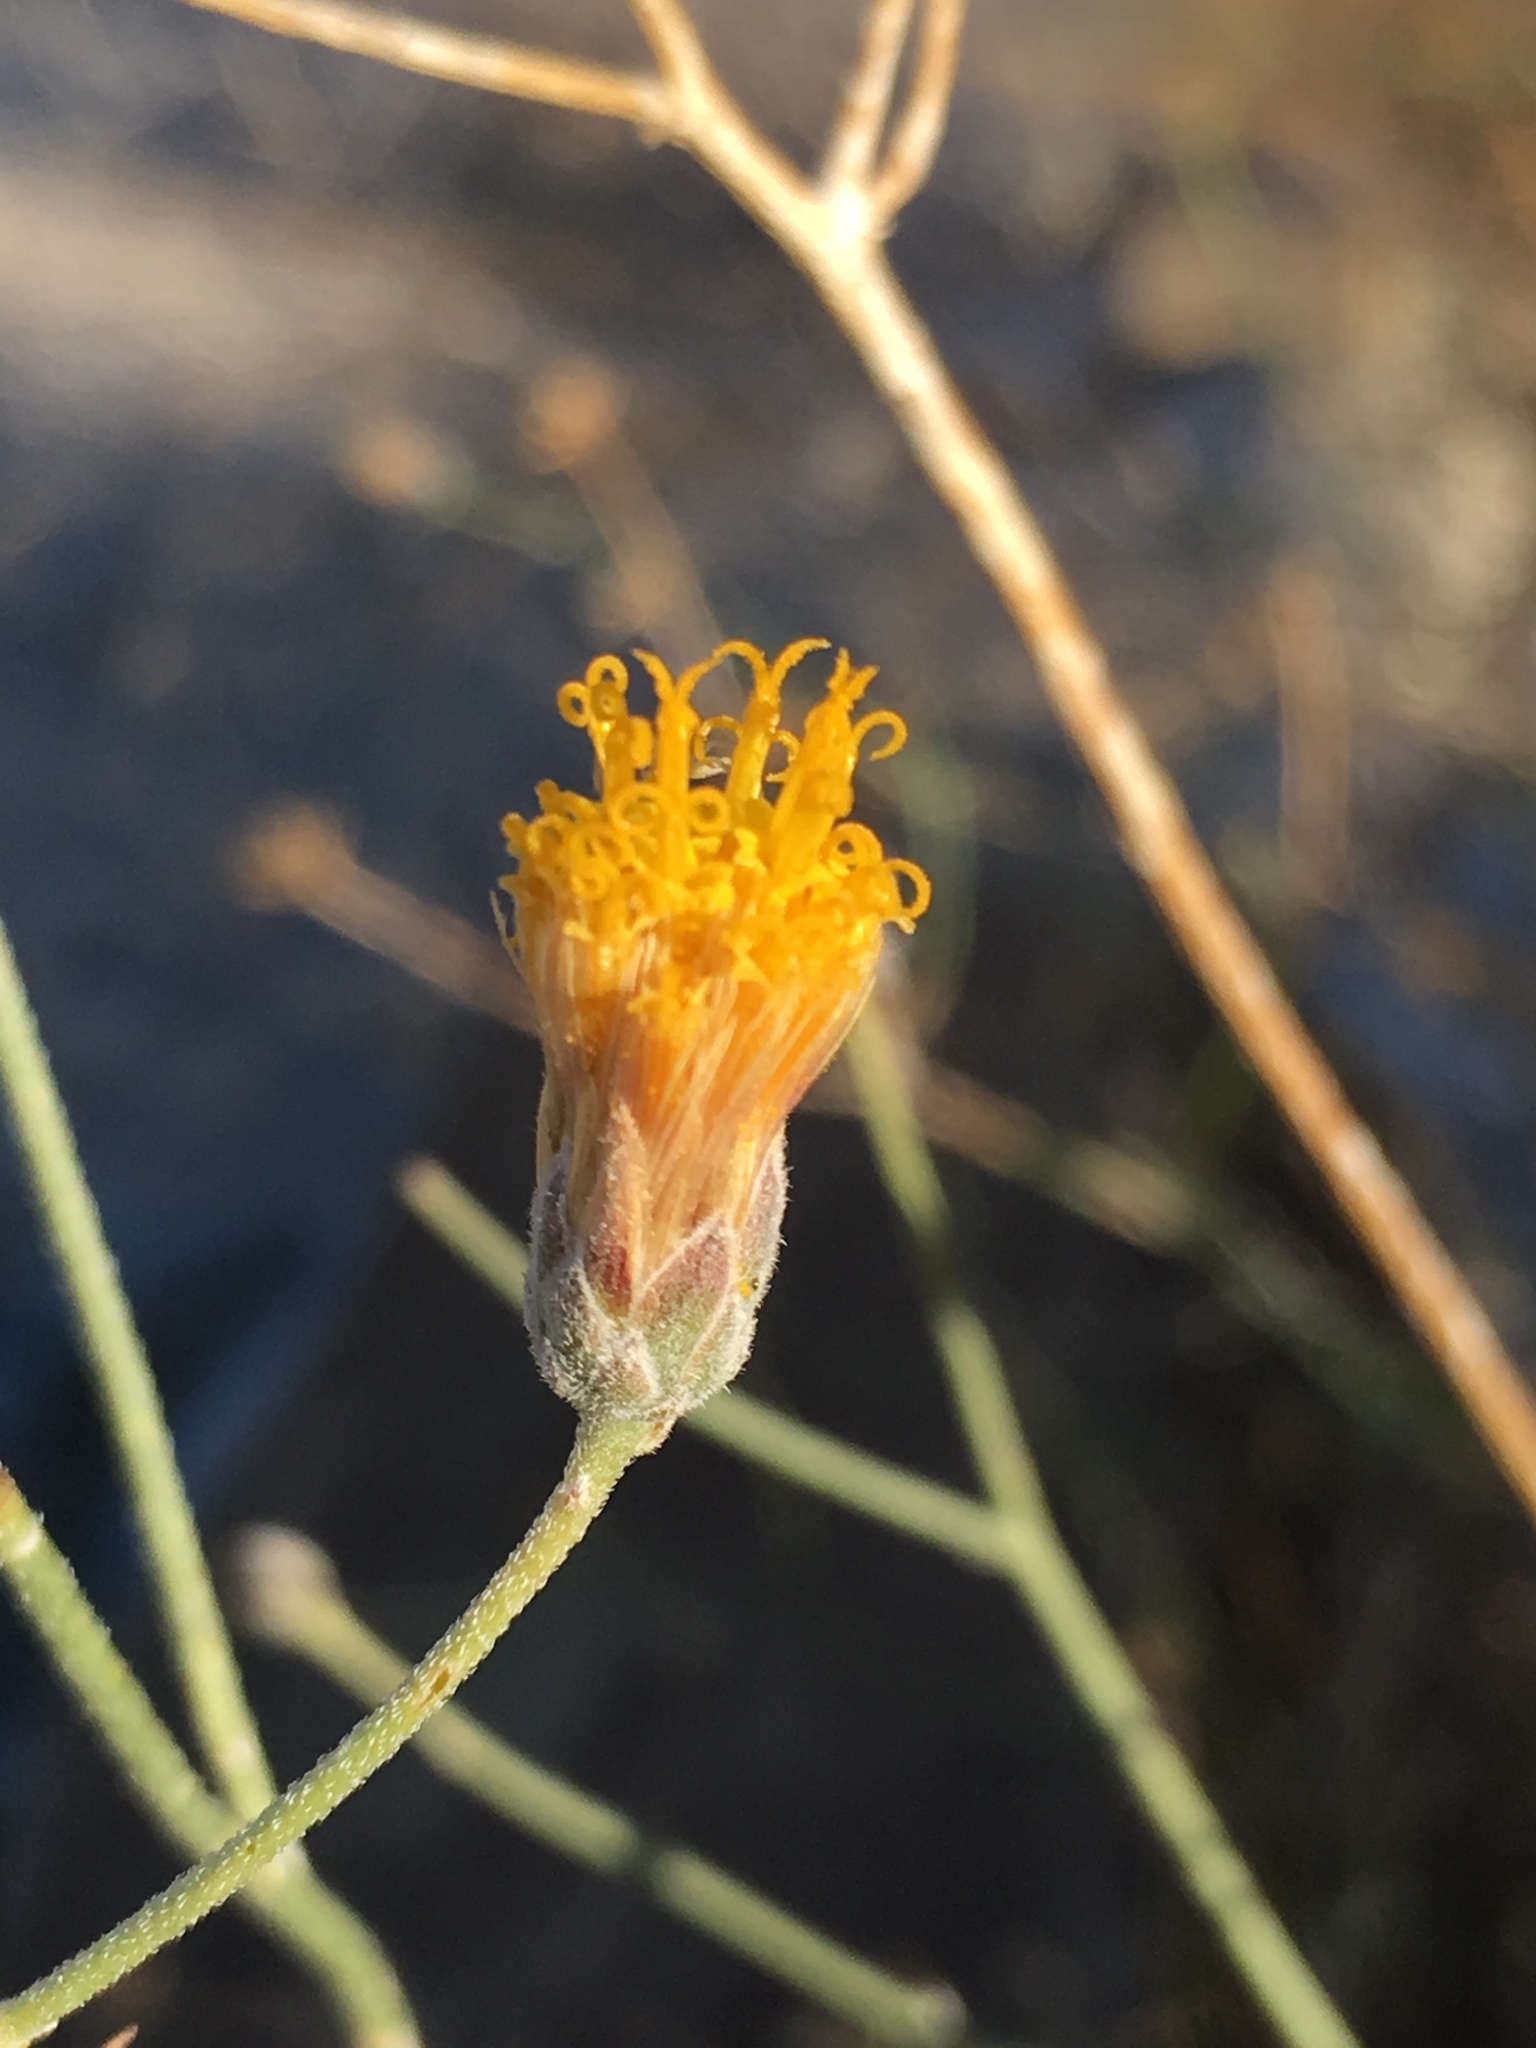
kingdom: Plantae
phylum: Tracheophyta
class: Magnoliopsida
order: Asterales
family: Asteraceae
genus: Bebbia
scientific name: Bebbia juncea
